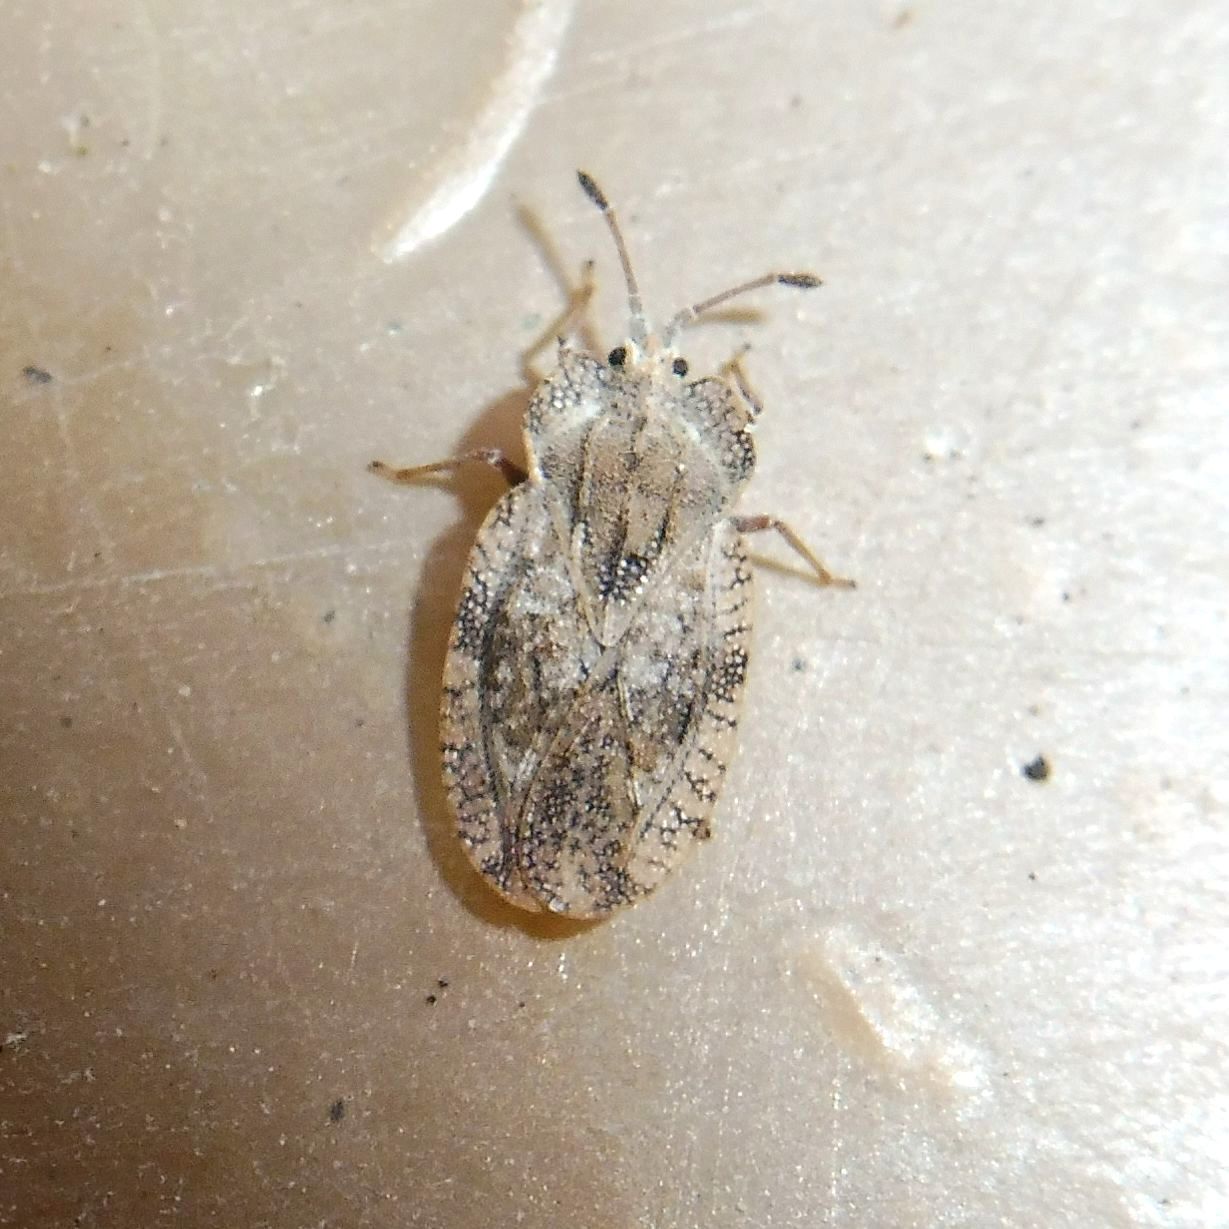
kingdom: Animalia
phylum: Arthropoda
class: Insecta
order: Hemiptera
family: Tingidae
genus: Tingis
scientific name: Tingis ampliata
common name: Creeping thistle lacebug
